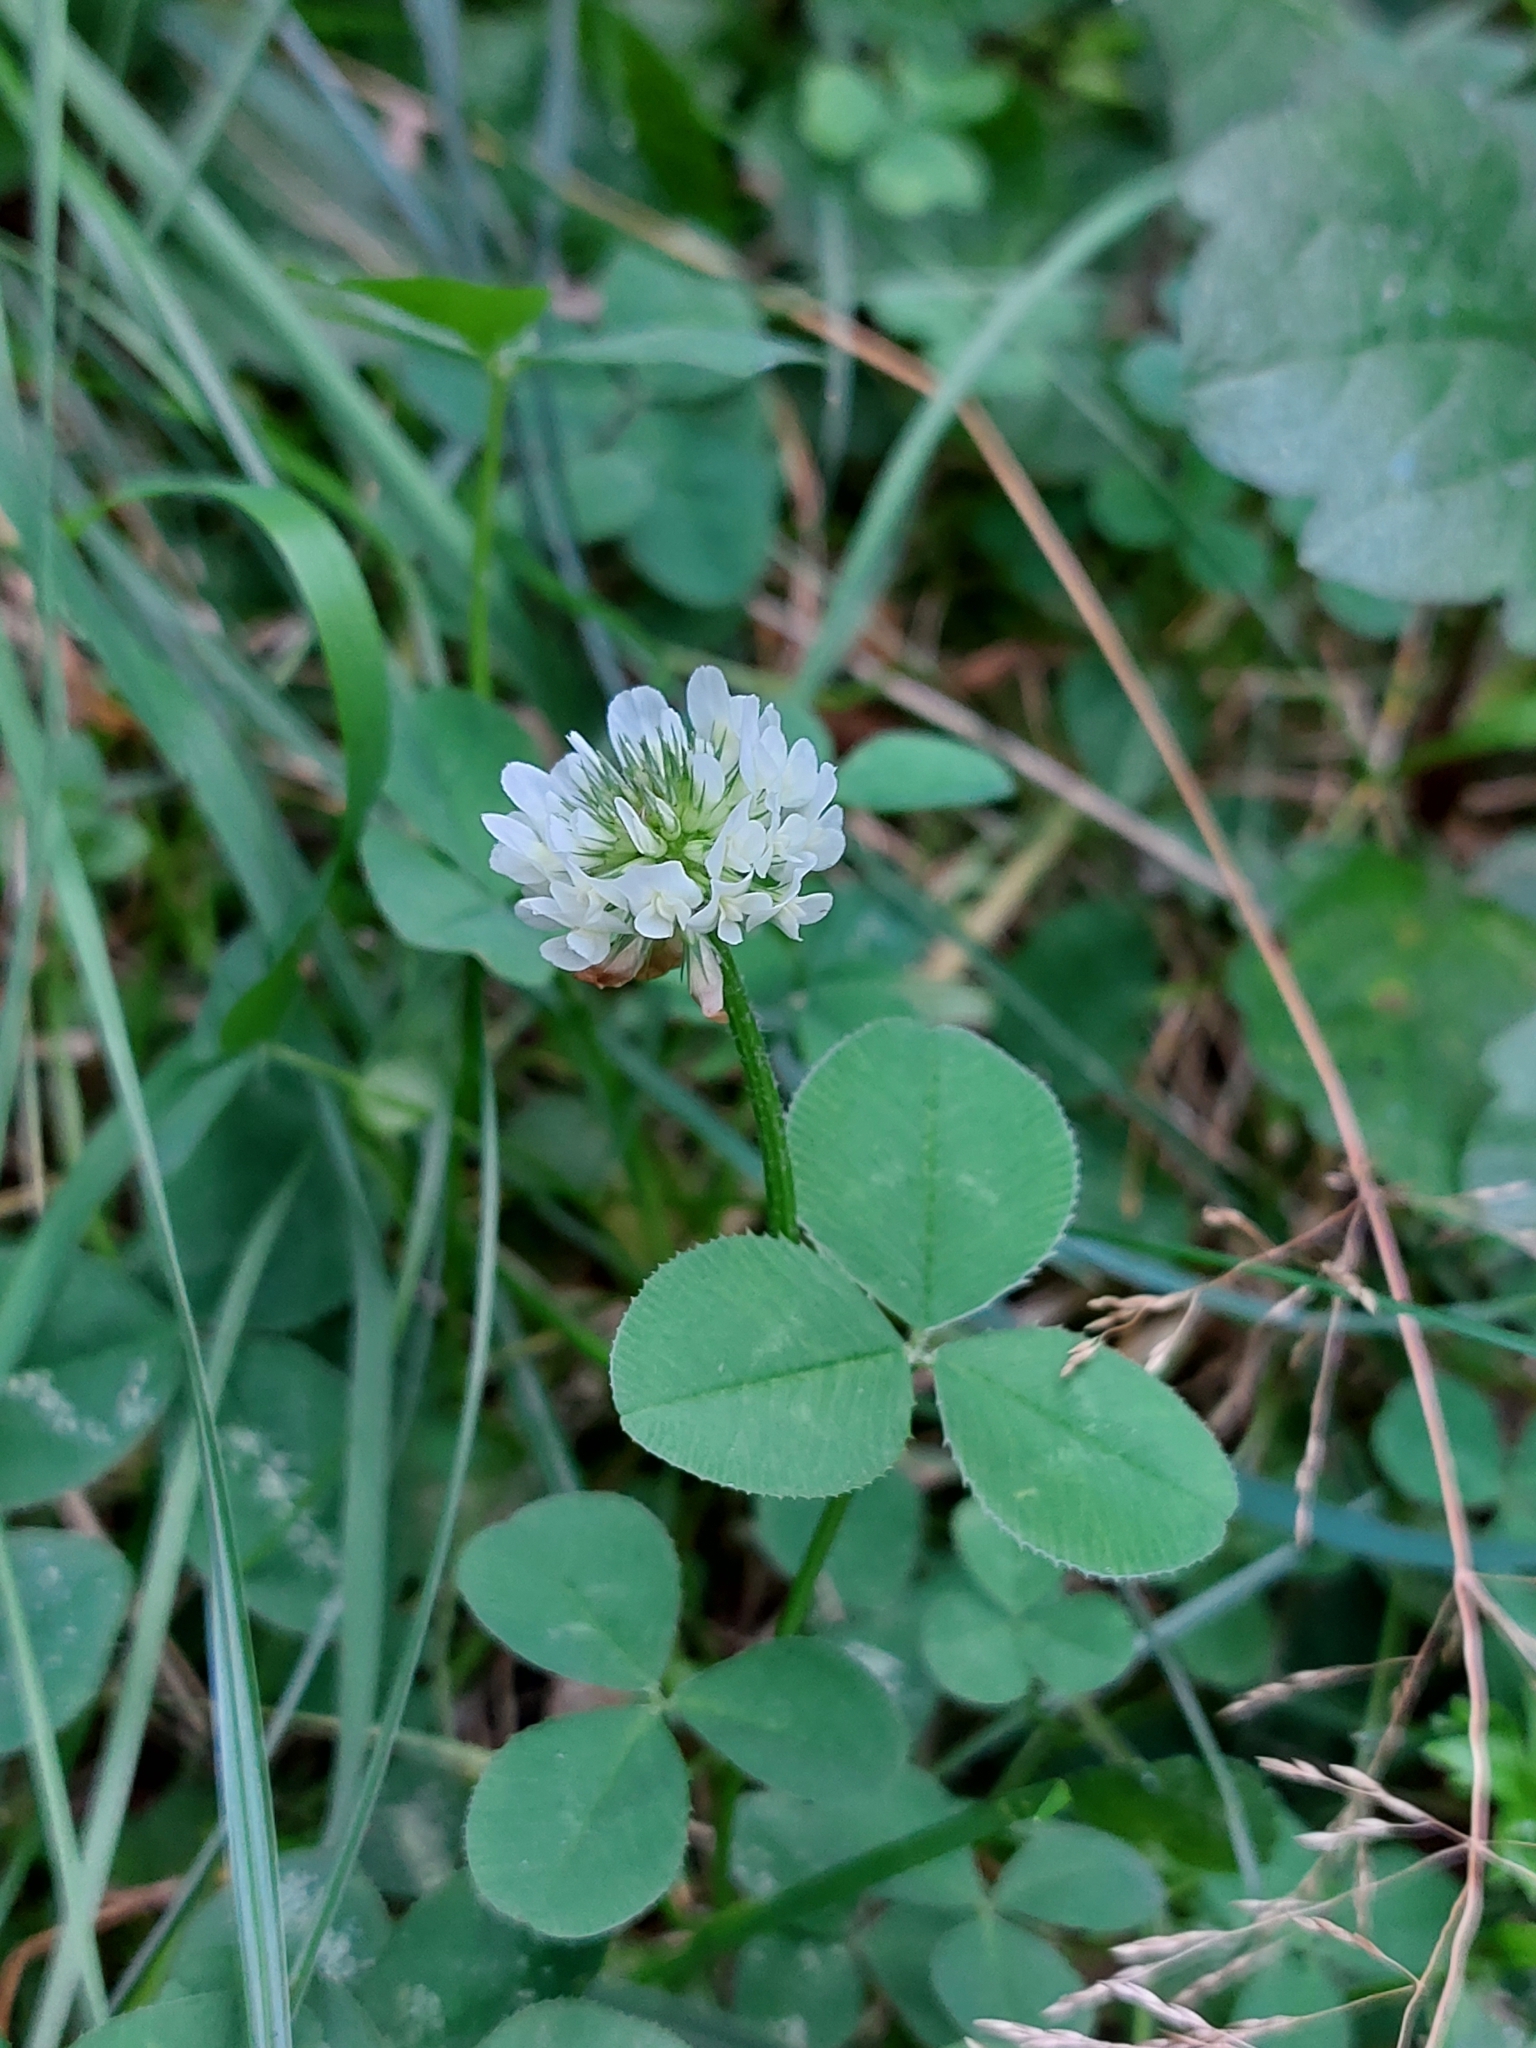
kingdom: Plantae
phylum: Tracheophyta
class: Magnoliopsida
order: Fabales
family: Fabaceae
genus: Trifolium
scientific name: Trifolium repens
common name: White clover
